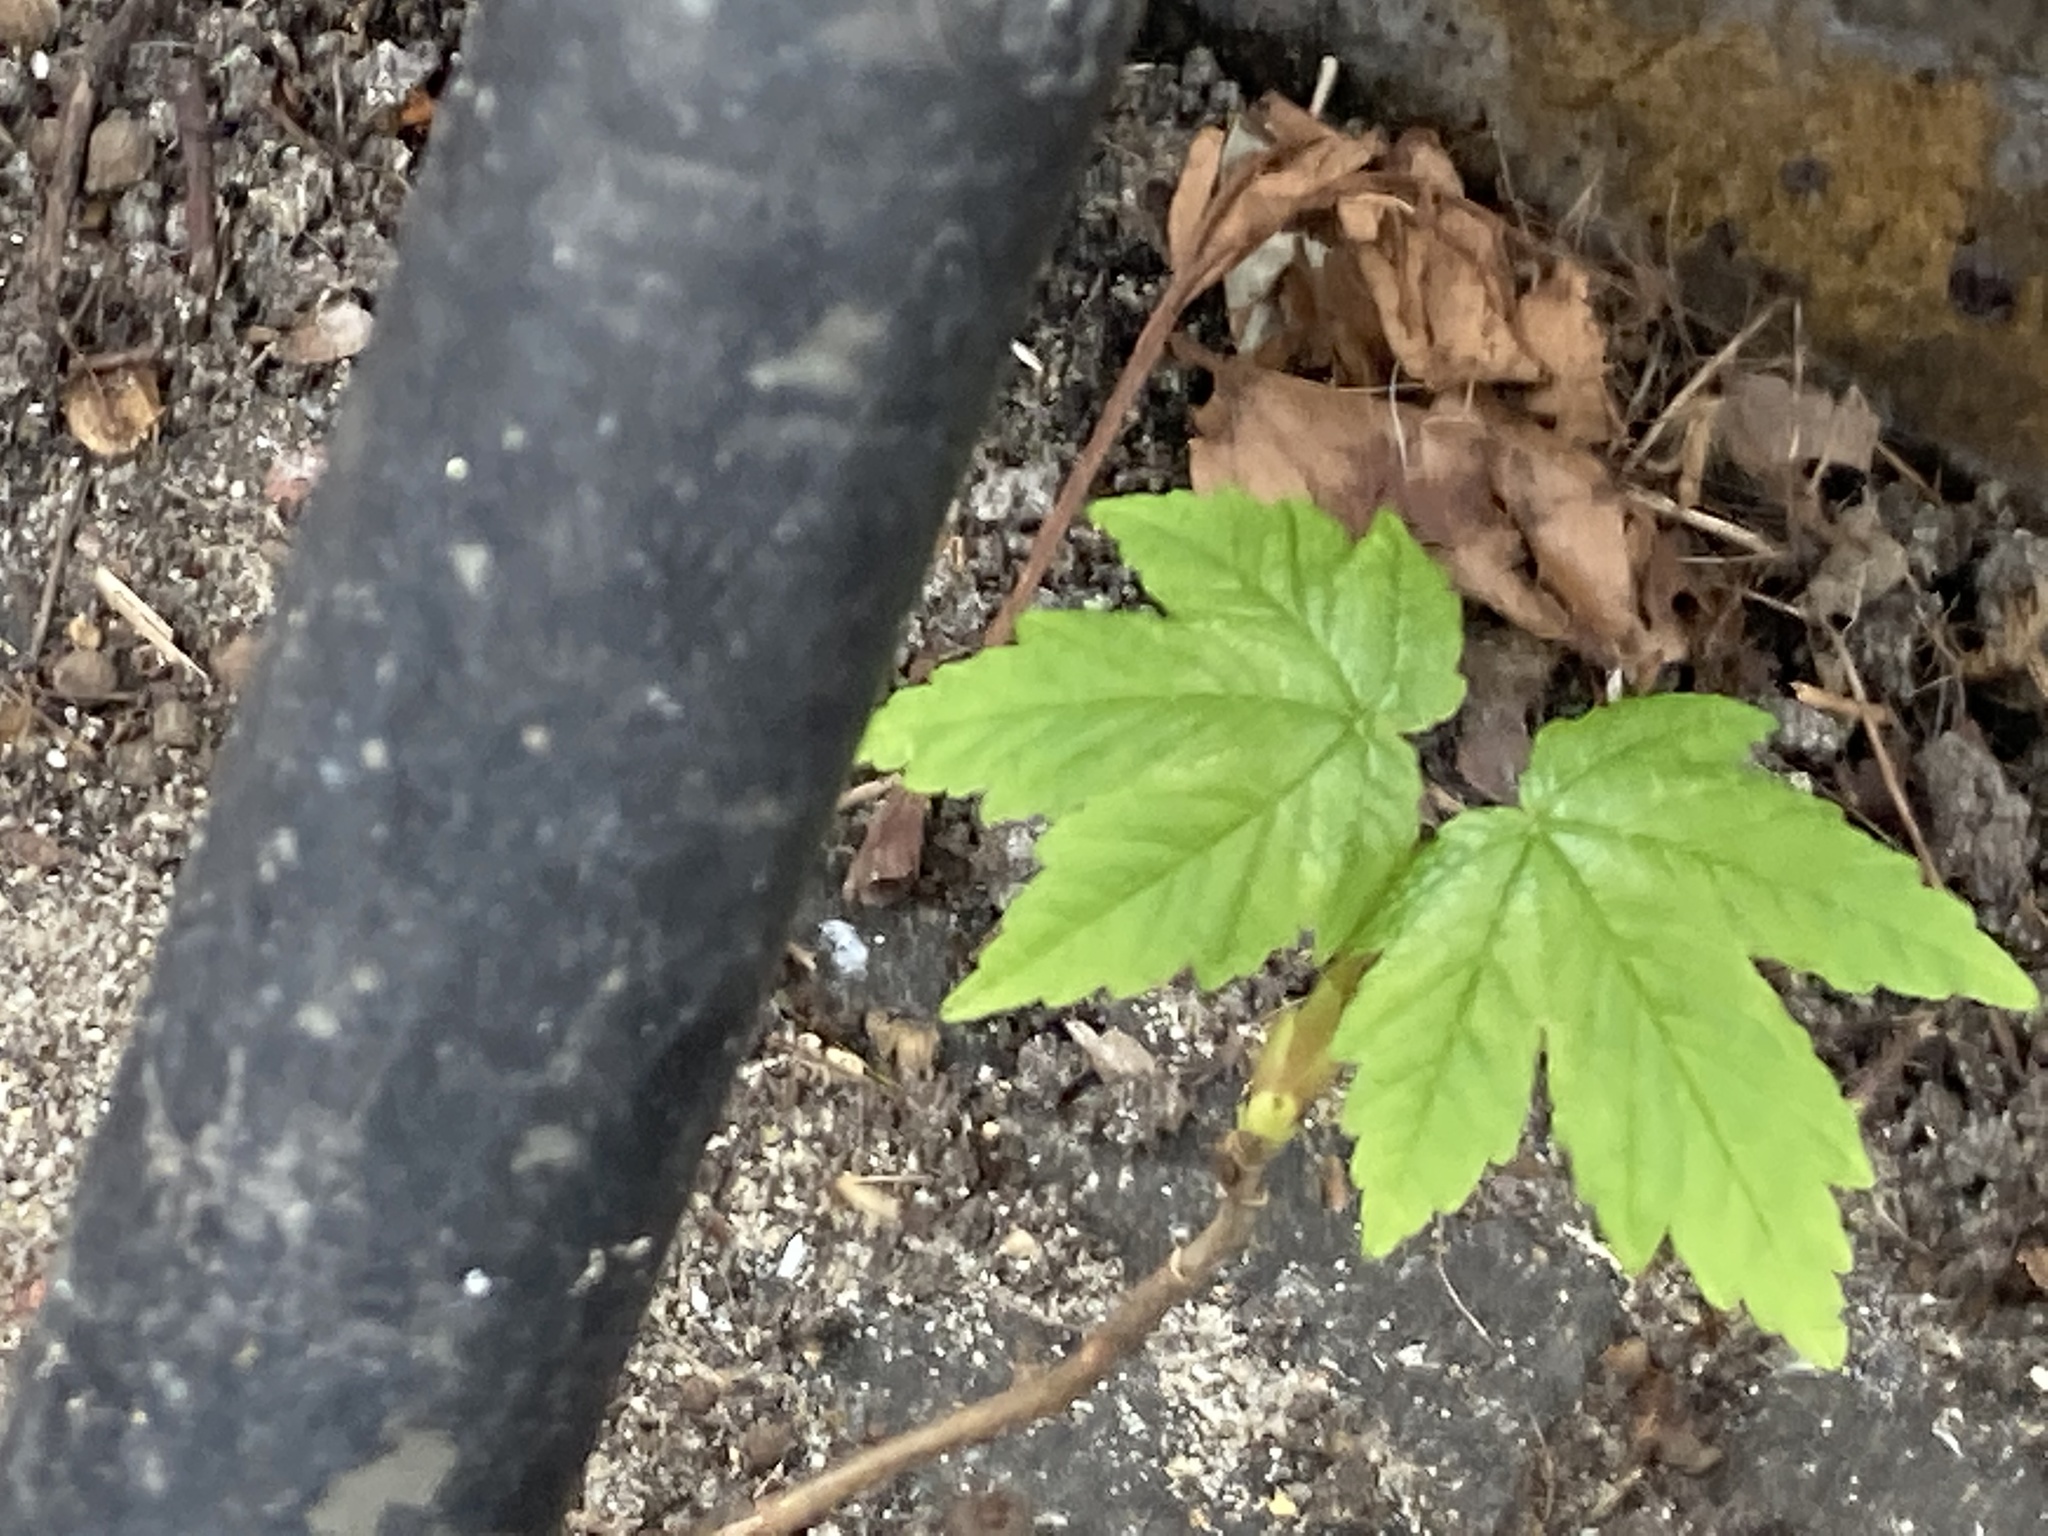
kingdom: Plantae
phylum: Tracheophyta
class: Magnoliopsida
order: Sapindales
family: Sapindaceae
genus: Acer
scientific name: Acer pseudoplatanus
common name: Sycamore
